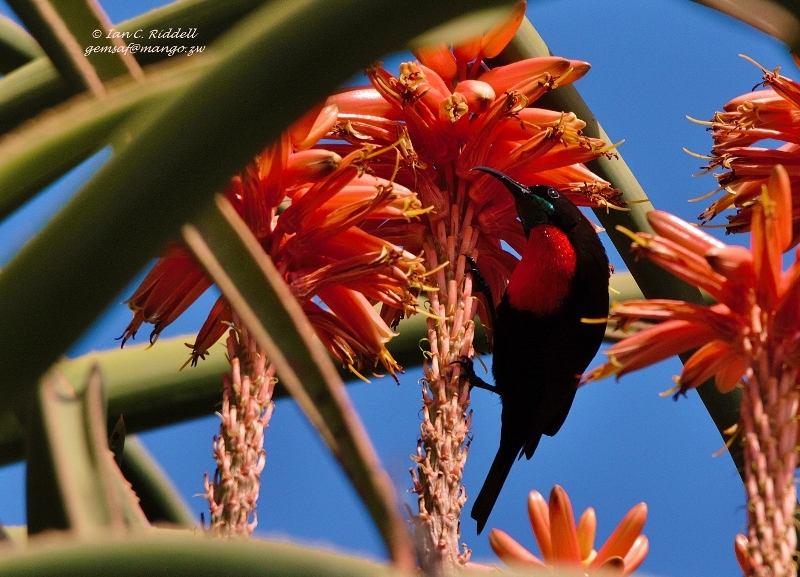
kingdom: Animalia
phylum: Chordata
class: Aves
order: Passeriformes
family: Nectariniidae
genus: Chalcomitra
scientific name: Chalcomitra senegalensis
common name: Scarlet-chested sunbird
